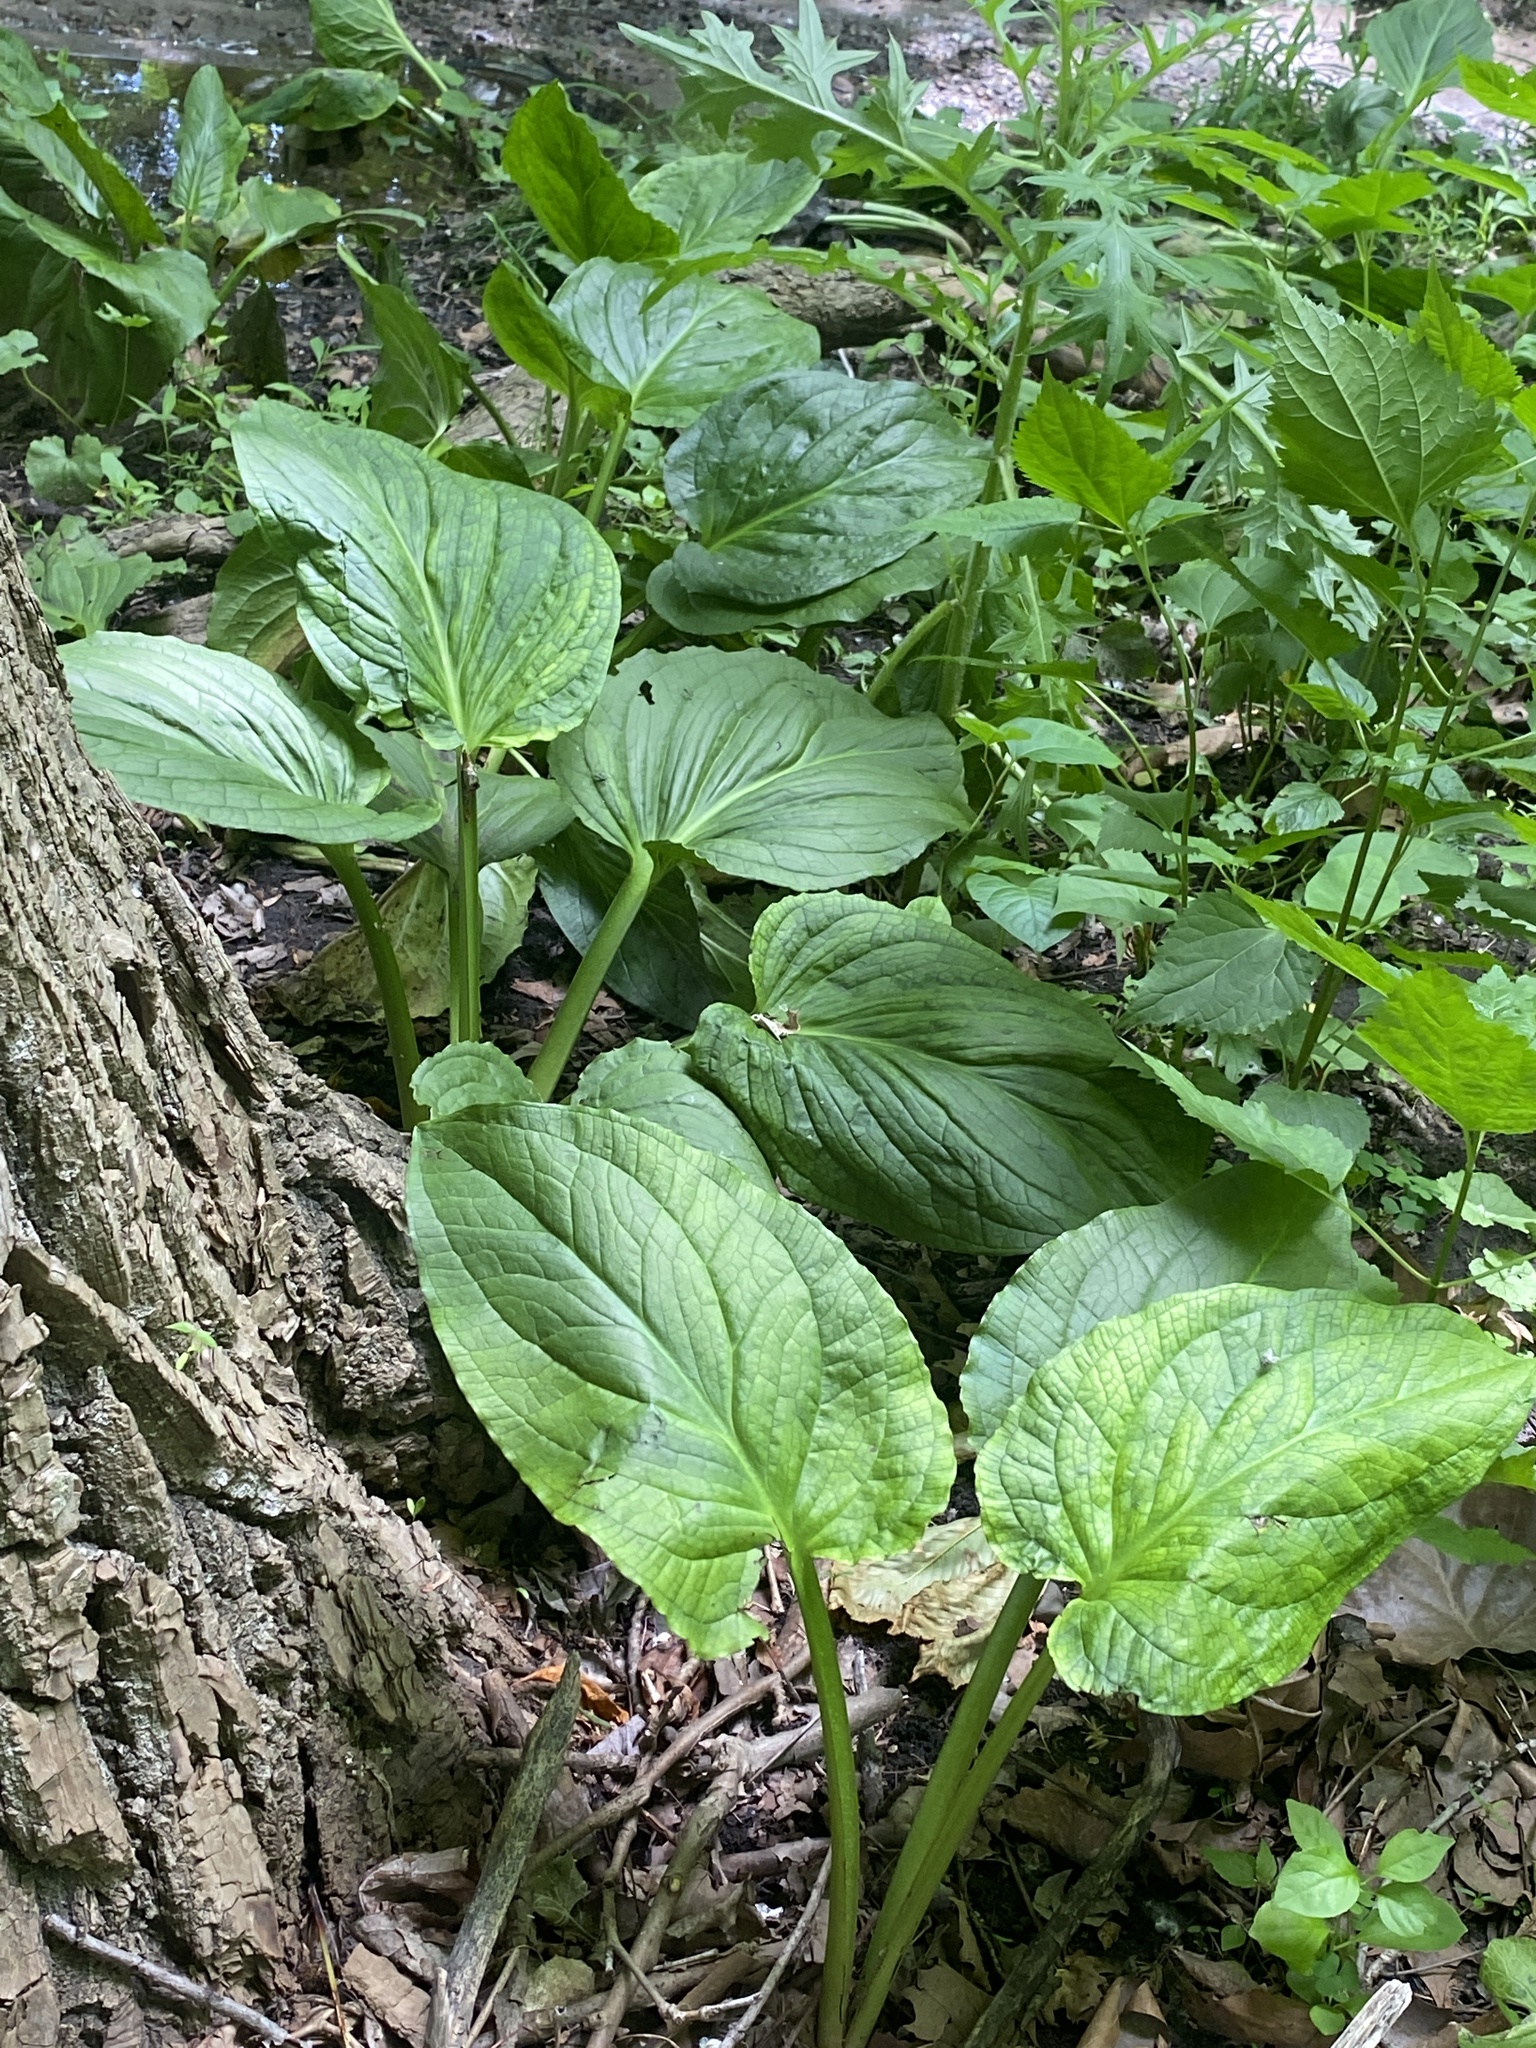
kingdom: Plantae
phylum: Tracheophyta
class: Liliopsida
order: Alismatales
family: Araceae
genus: Symplocarpus
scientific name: Symplocarpus foetidus
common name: Eastern skunk cabbage
